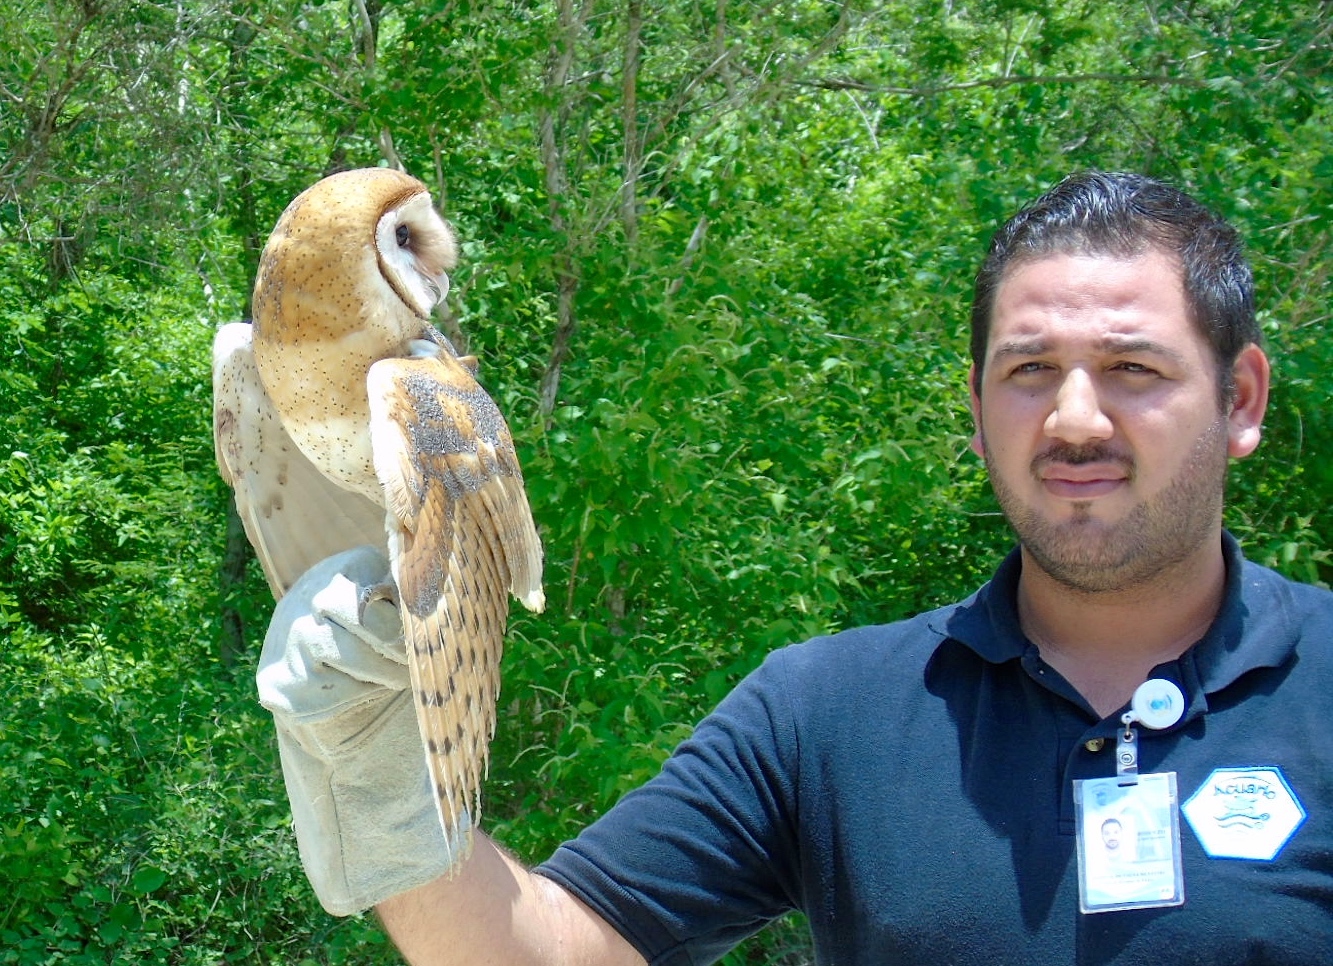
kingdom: Animalia
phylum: Chordata
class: Aves
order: Strigiformes
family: Tytonidae
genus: Tyto
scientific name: Tyto alba
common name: Barn owl
